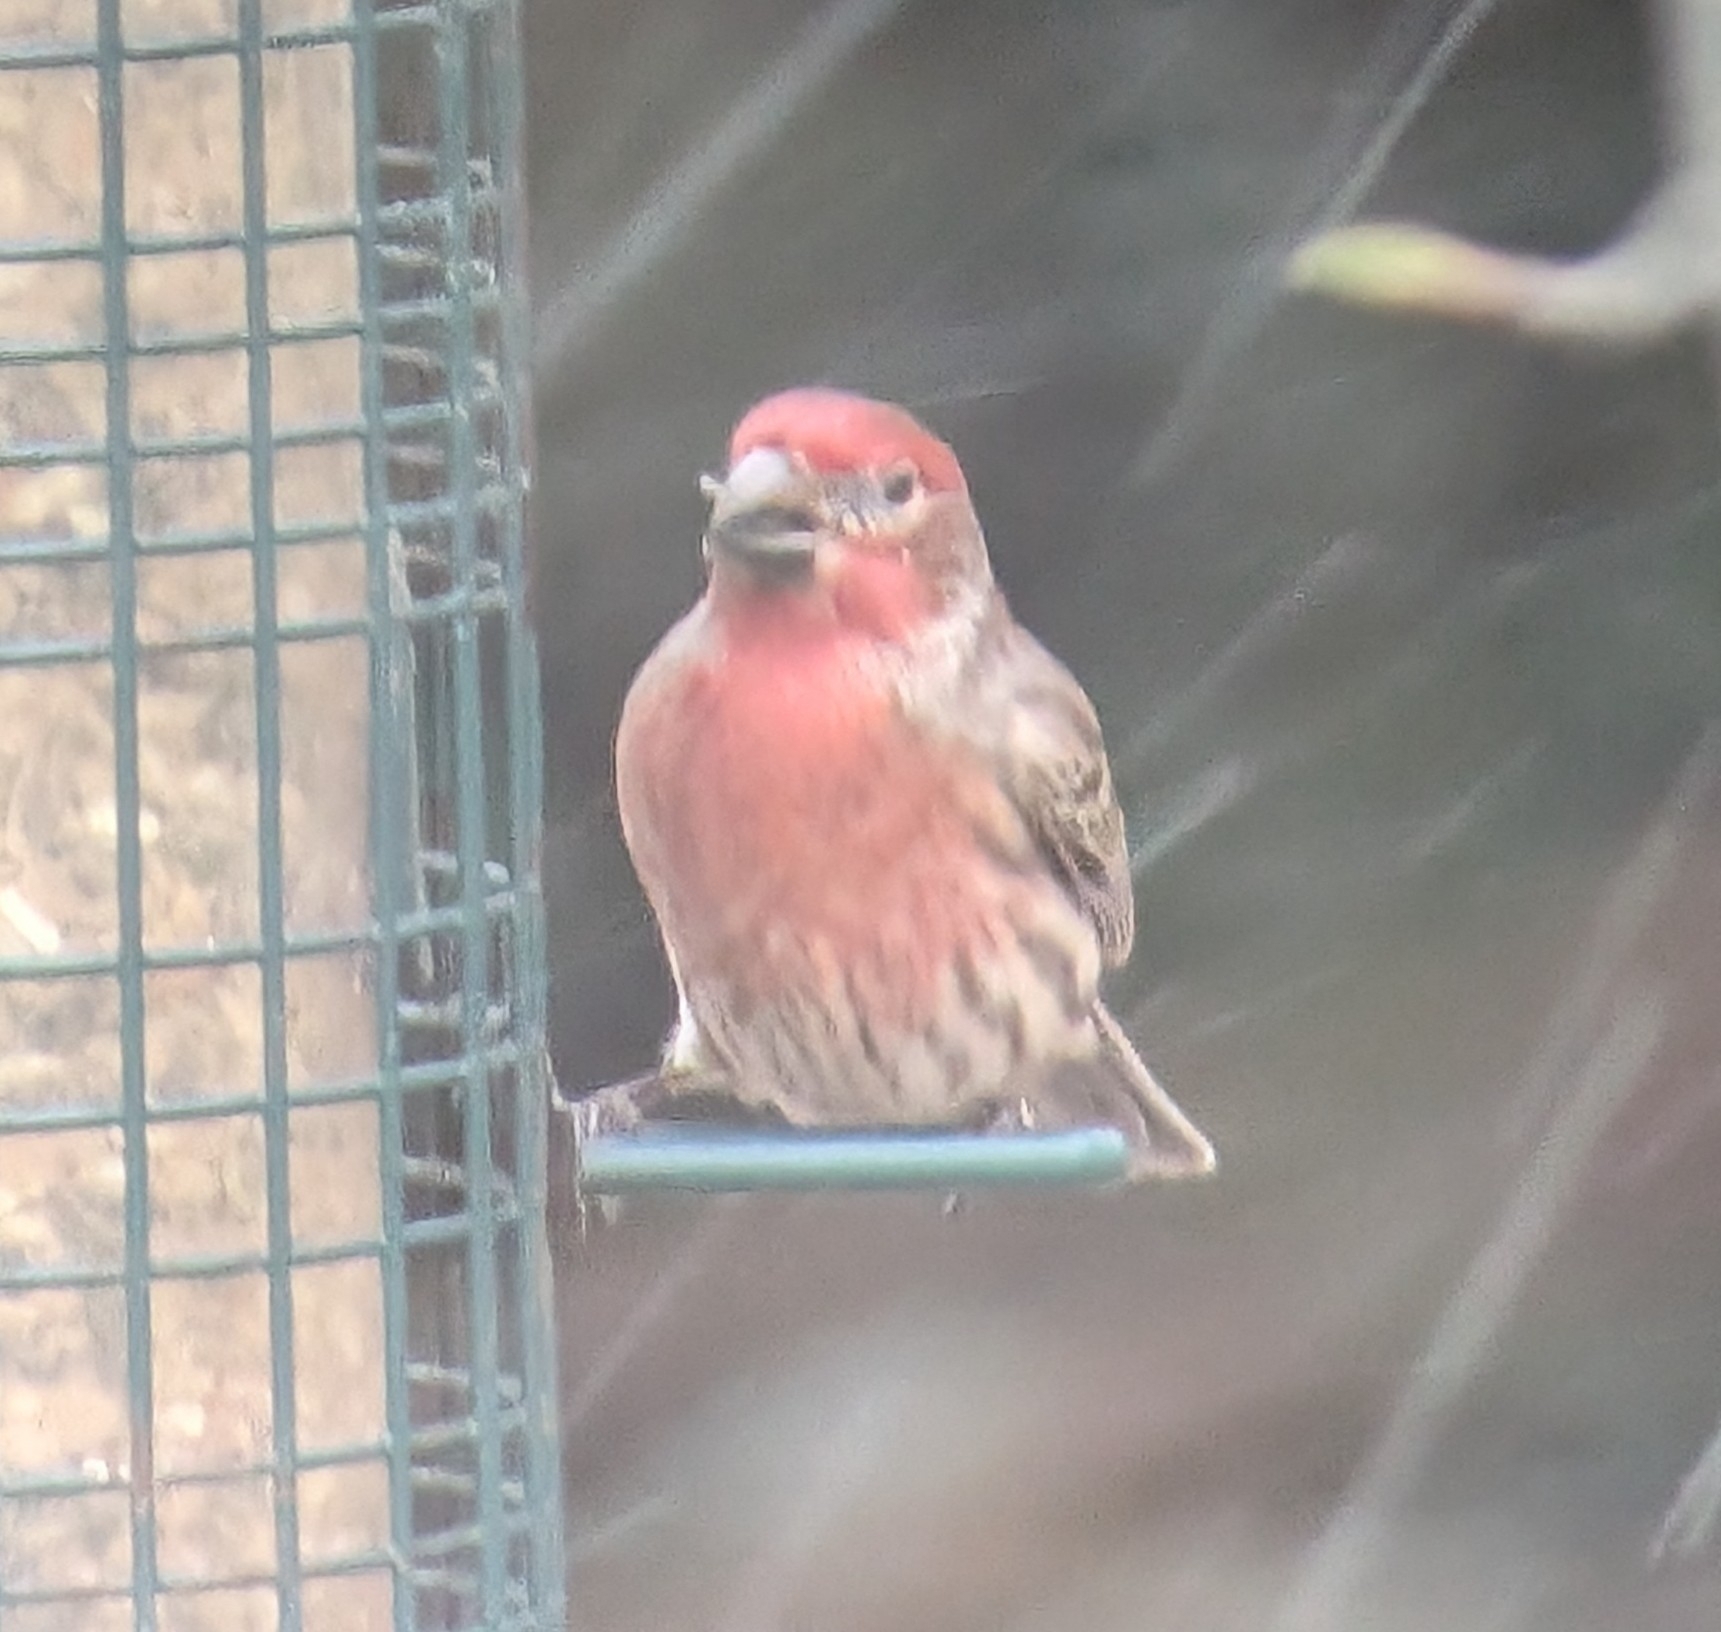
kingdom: Animalia
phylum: Chordata
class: Aves
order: Passeriformes
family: Fringillidae
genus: Haemorhous
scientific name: Haemorhous mexicanus
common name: House finch
